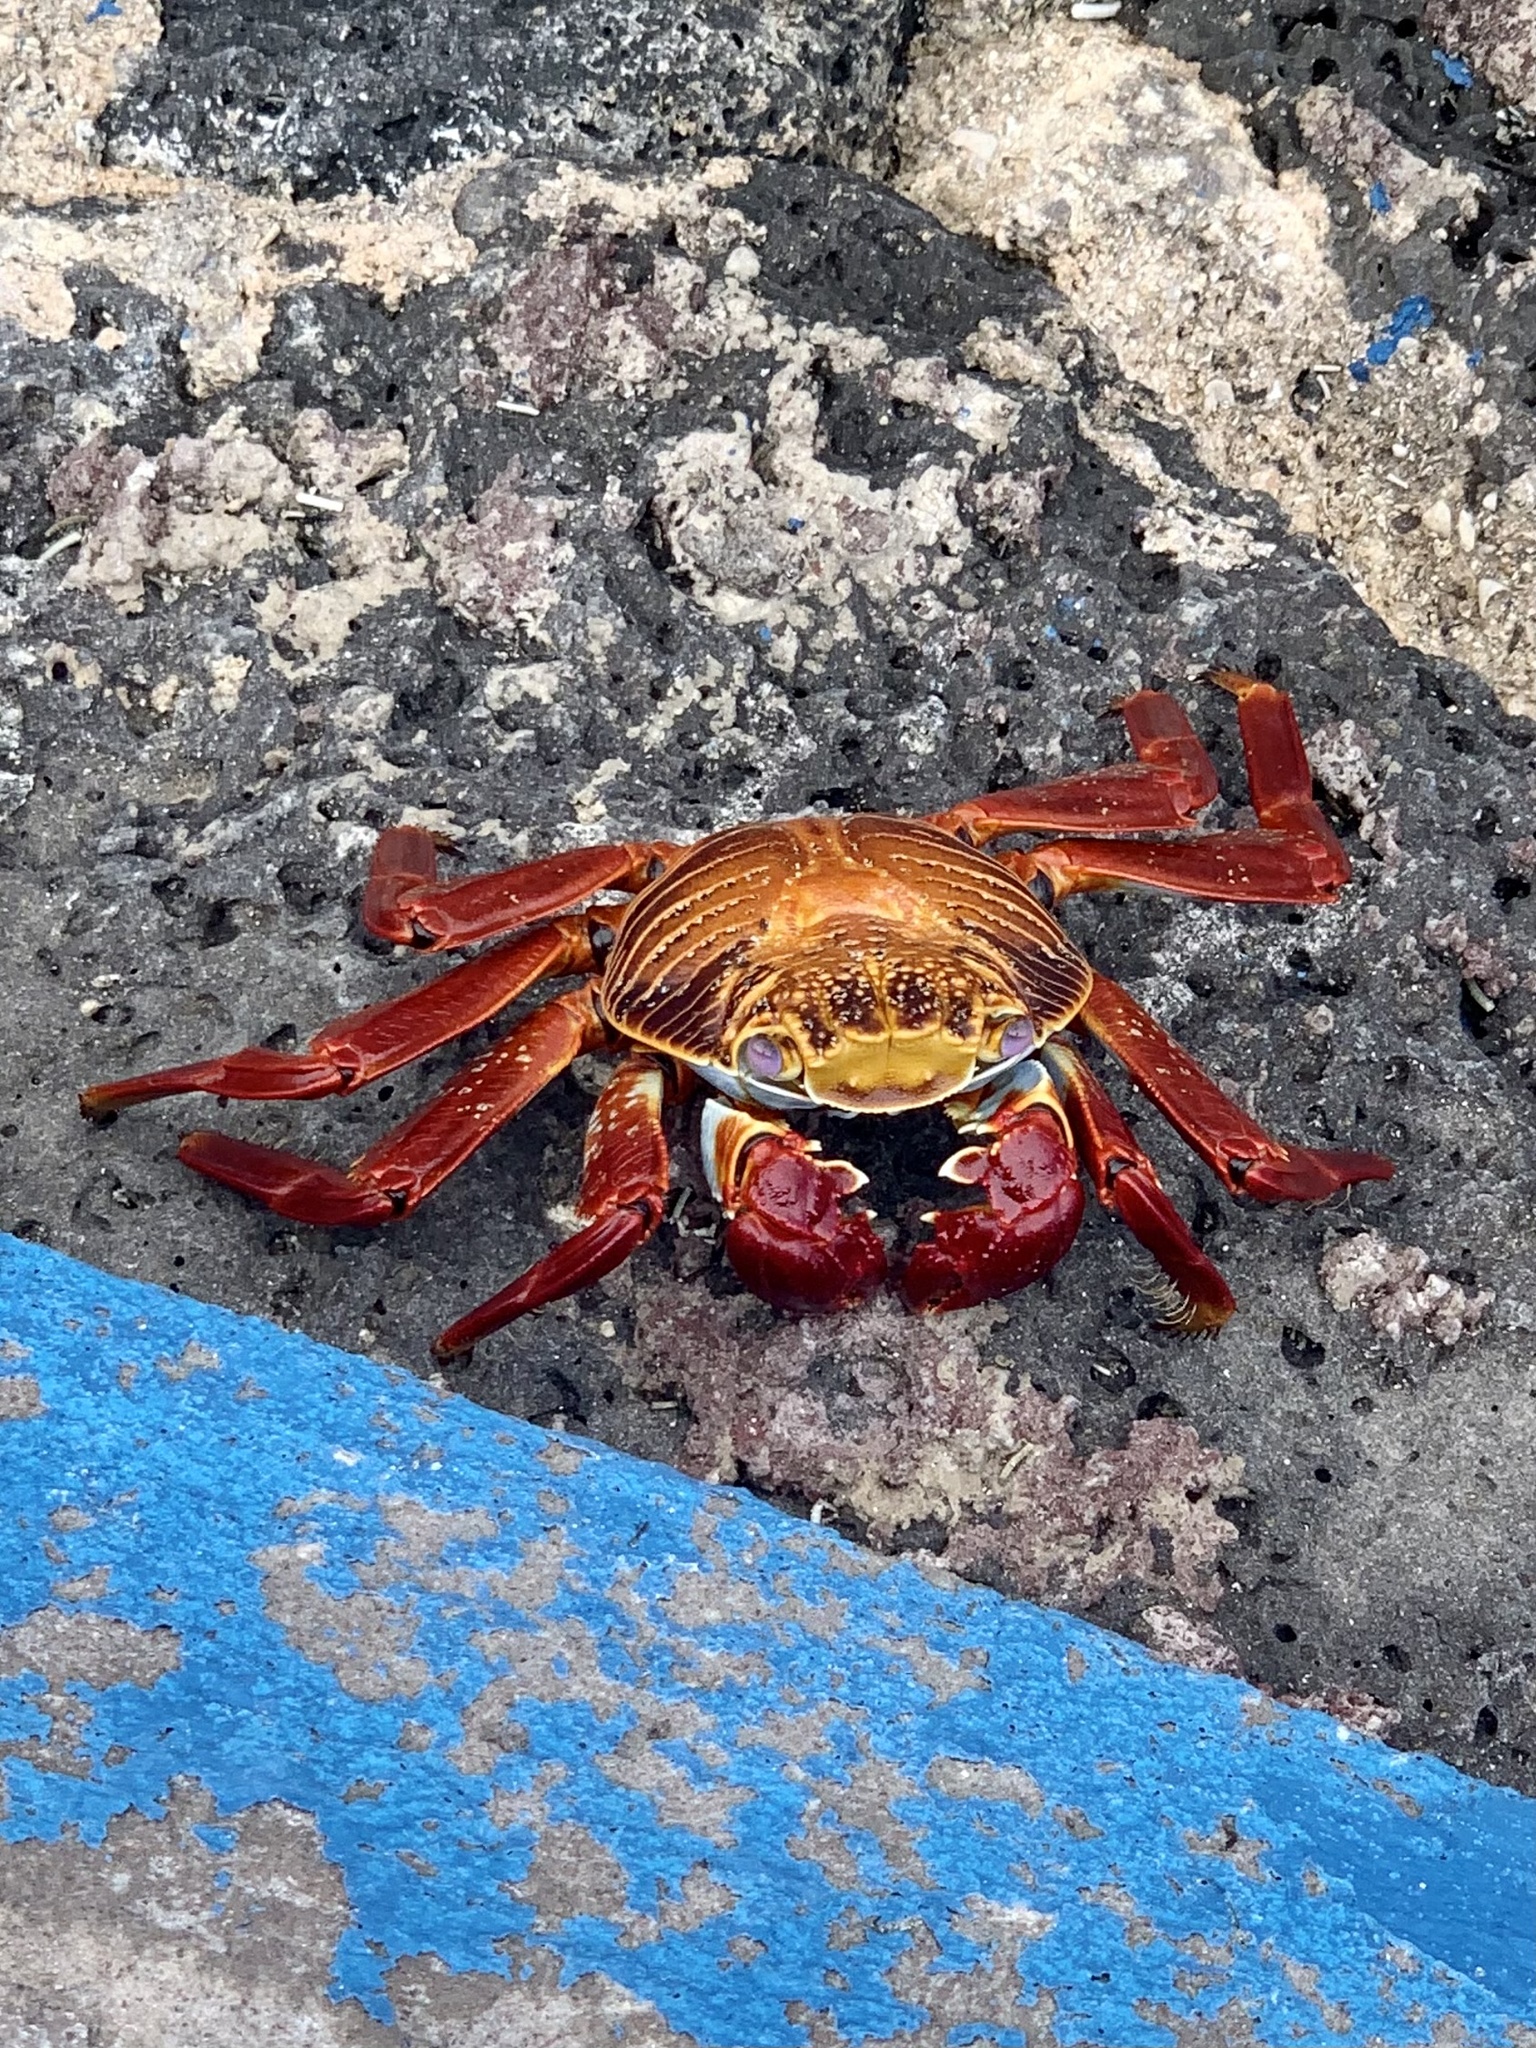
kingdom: Animalia
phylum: Arthropoda
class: Malacostraca
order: Decapoda
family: Grapsidae
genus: Grapsus
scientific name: Grapsus grapsus
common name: Sally lightfoot
